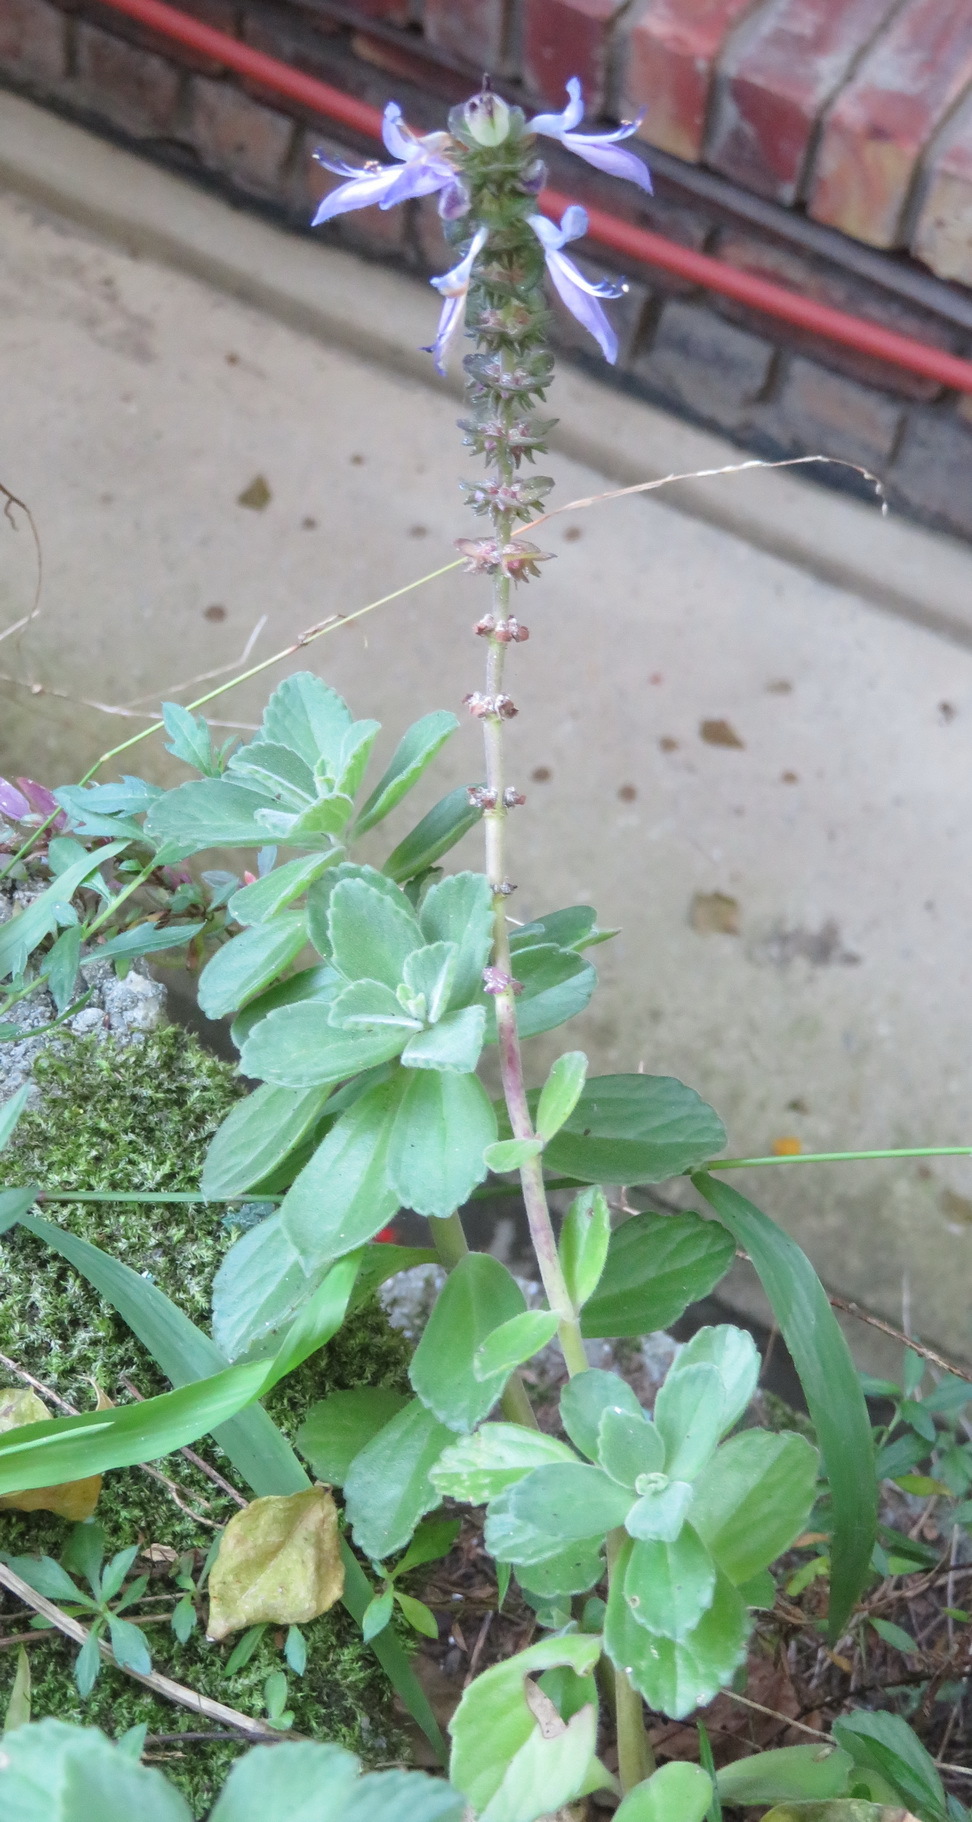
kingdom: Plantae
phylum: Tracheophyta
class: Magnoliopsida
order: Lamiales
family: Lamiaceae
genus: Coleus
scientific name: Coleus neochilus
